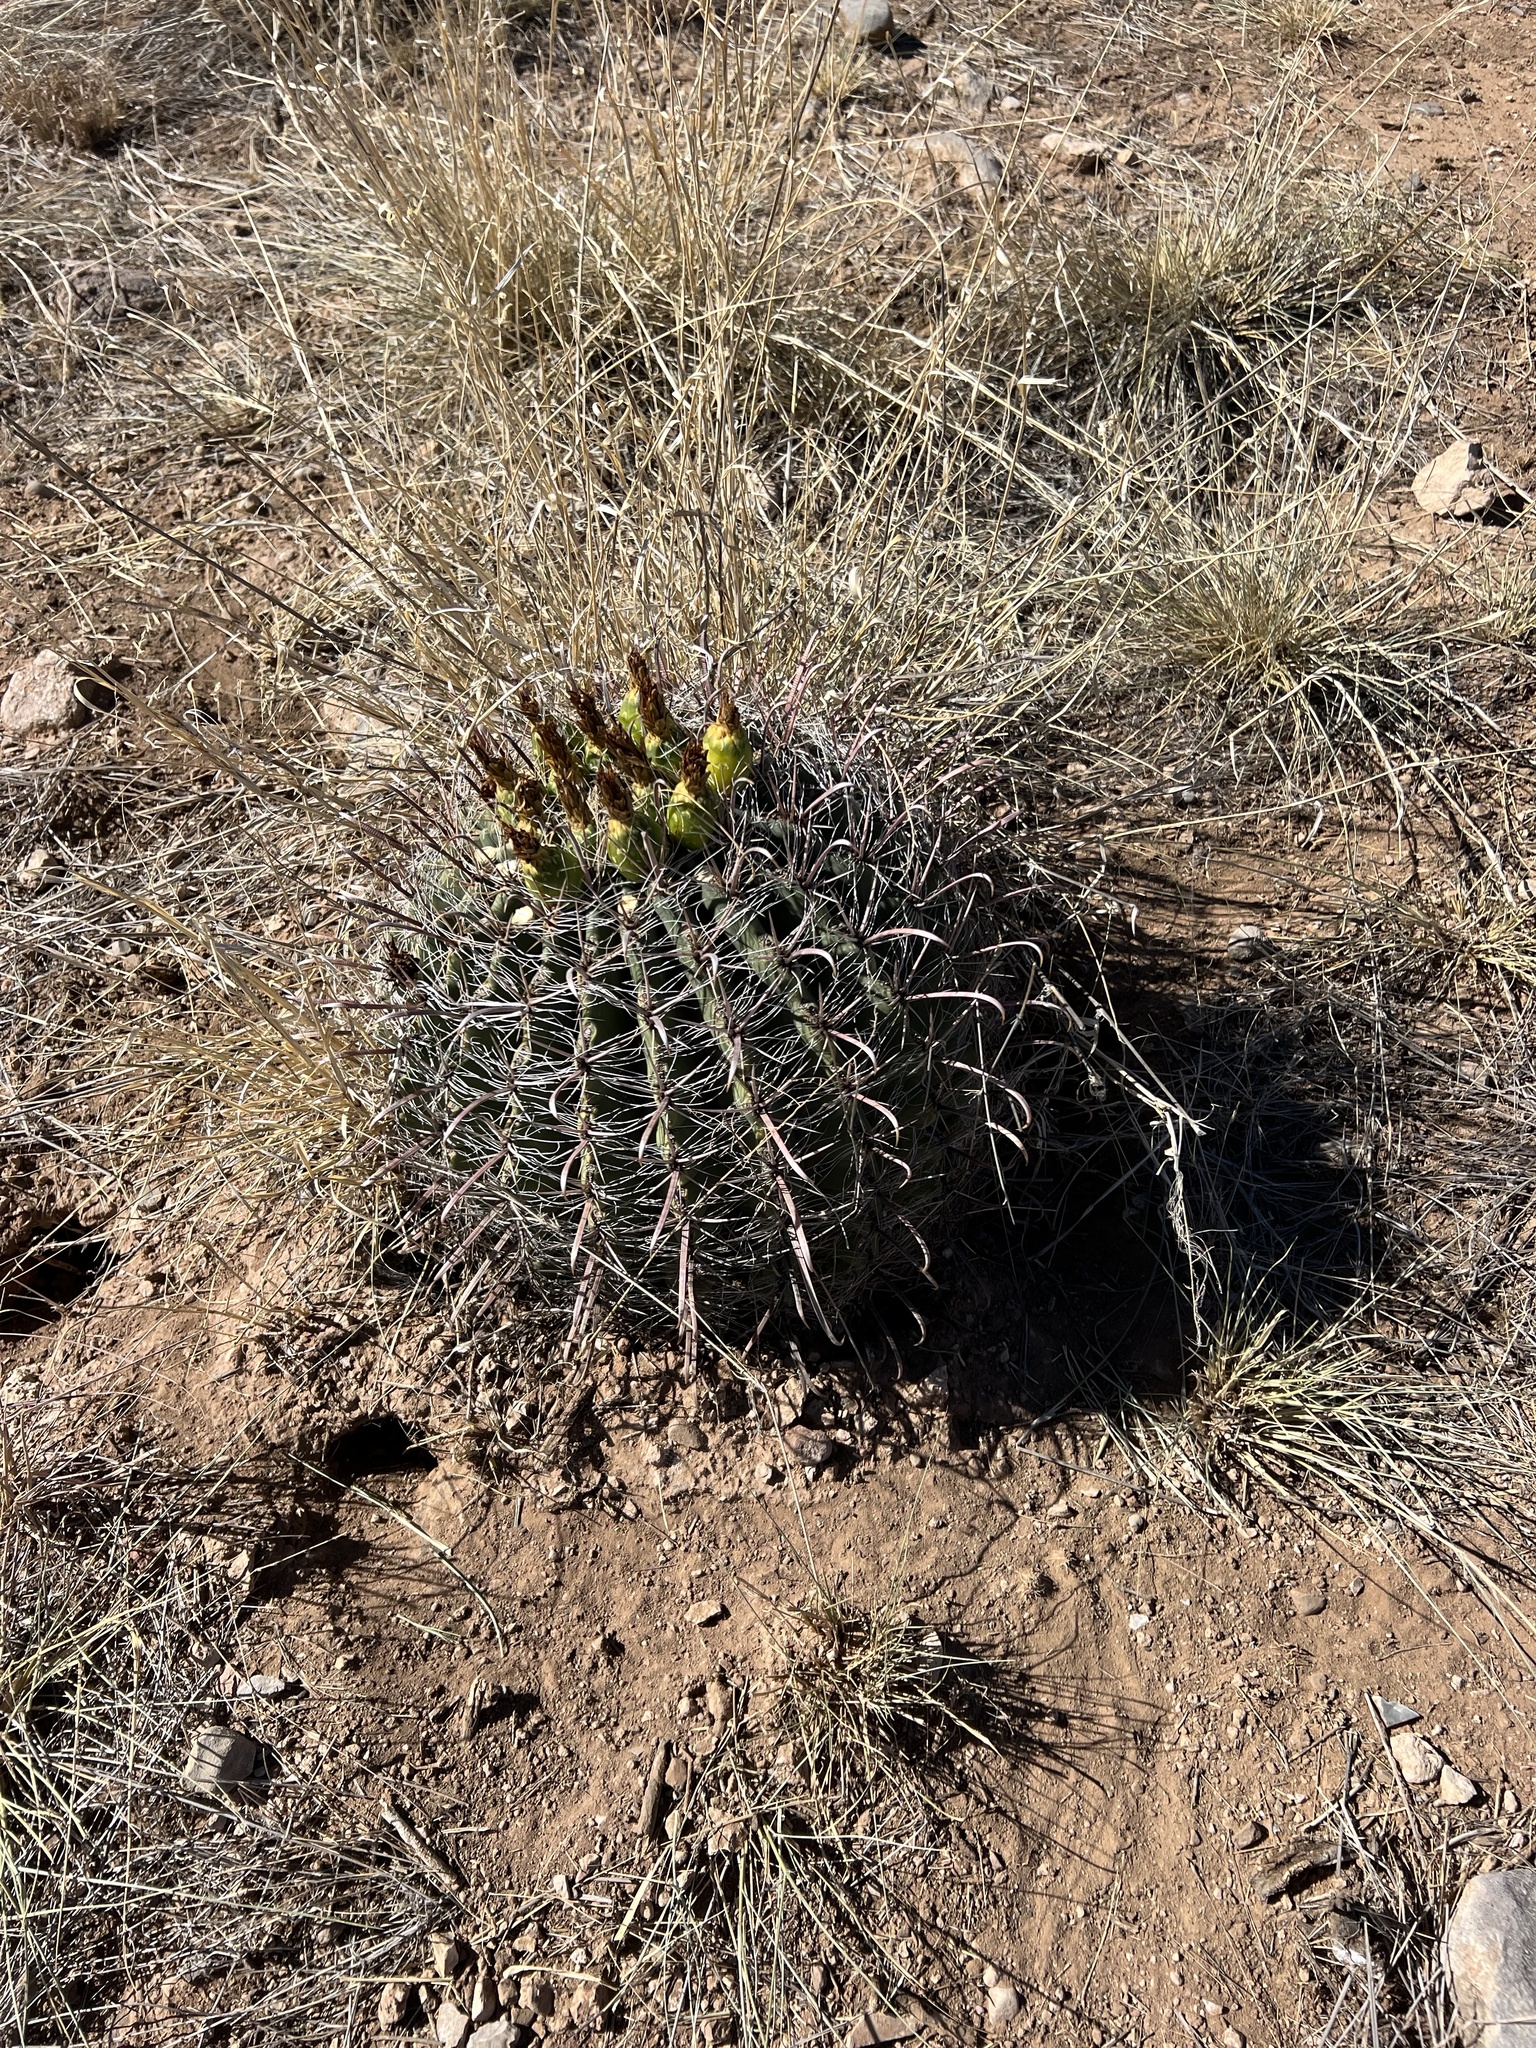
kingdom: Plantae
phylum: Tracheophyta
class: Magnoliopsida
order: Caryophyllales
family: Cactaceae
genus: Ferocactus
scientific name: Ferocactus wislizeni
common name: Candy barrel cactus
